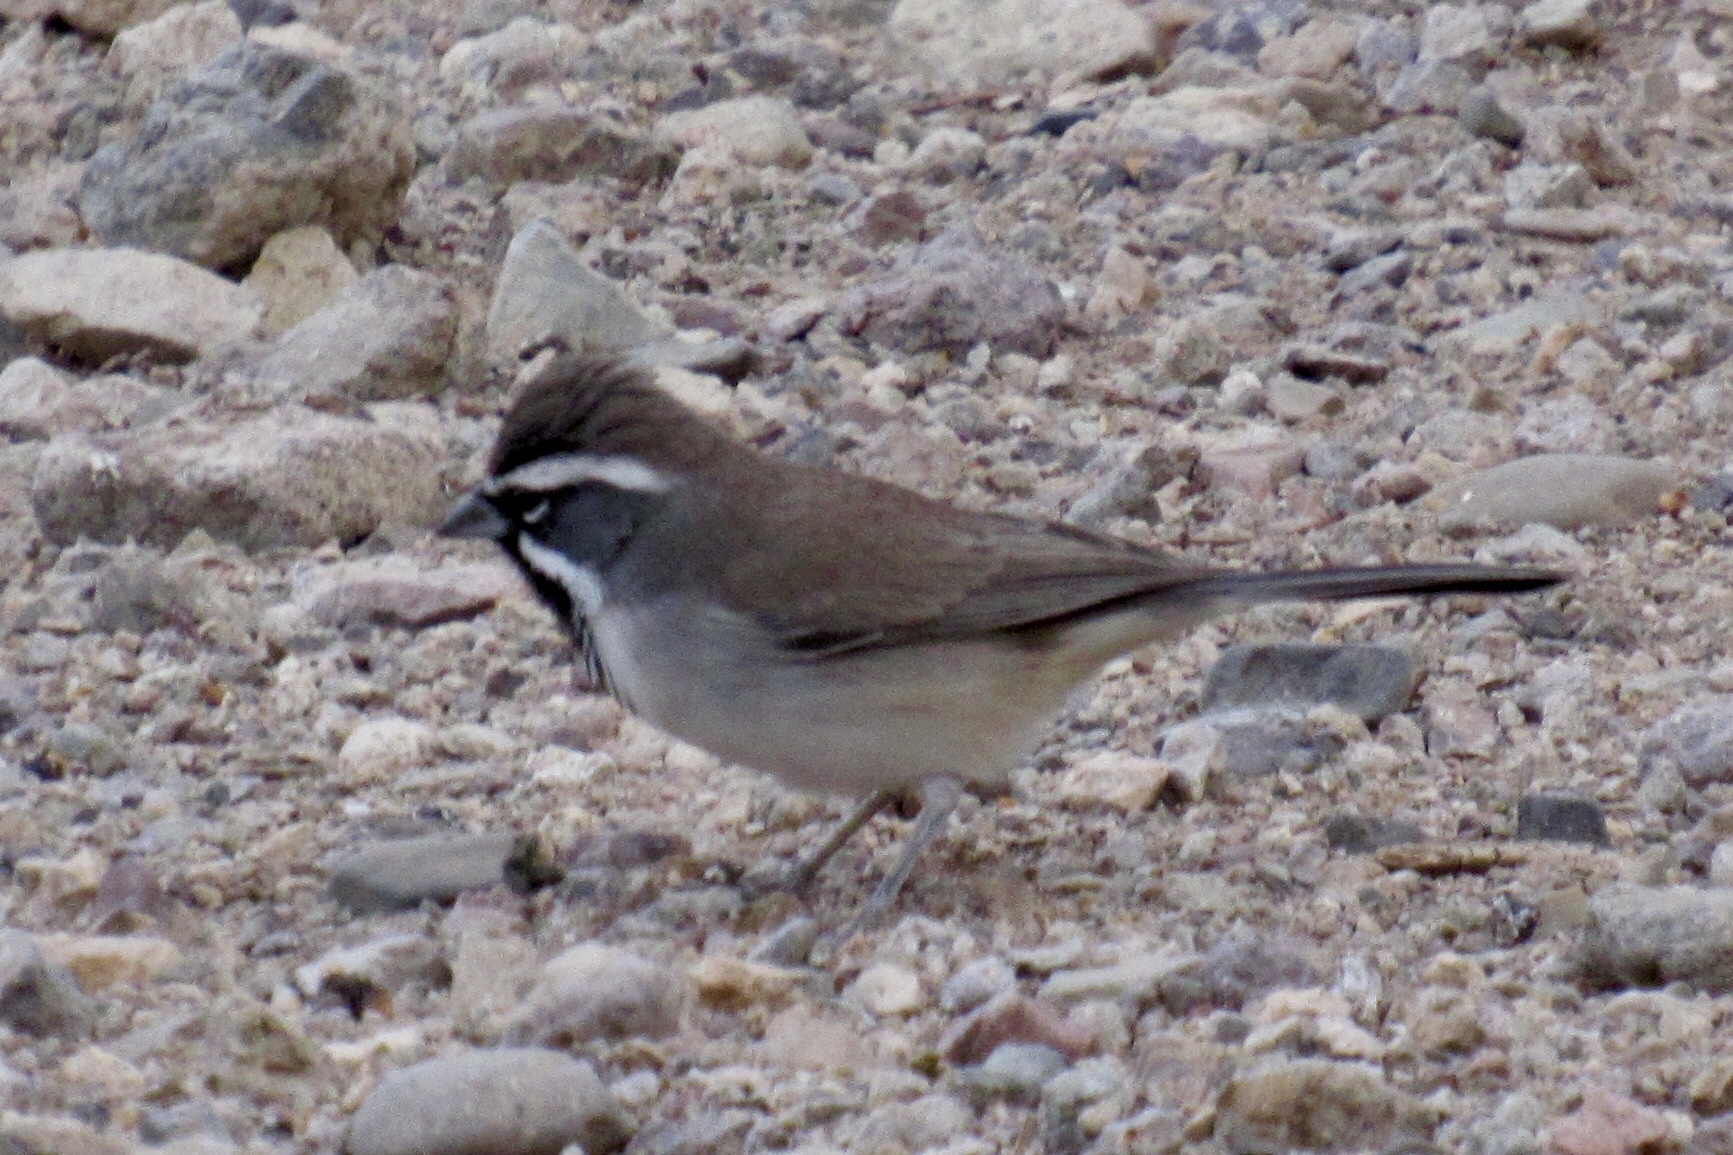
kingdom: Animalia
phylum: Chordata
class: Aves
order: Passeriformes
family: Passerellidae
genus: Amphispiza
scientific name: Amphispiza bilineata
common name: Black-throated sparrow
